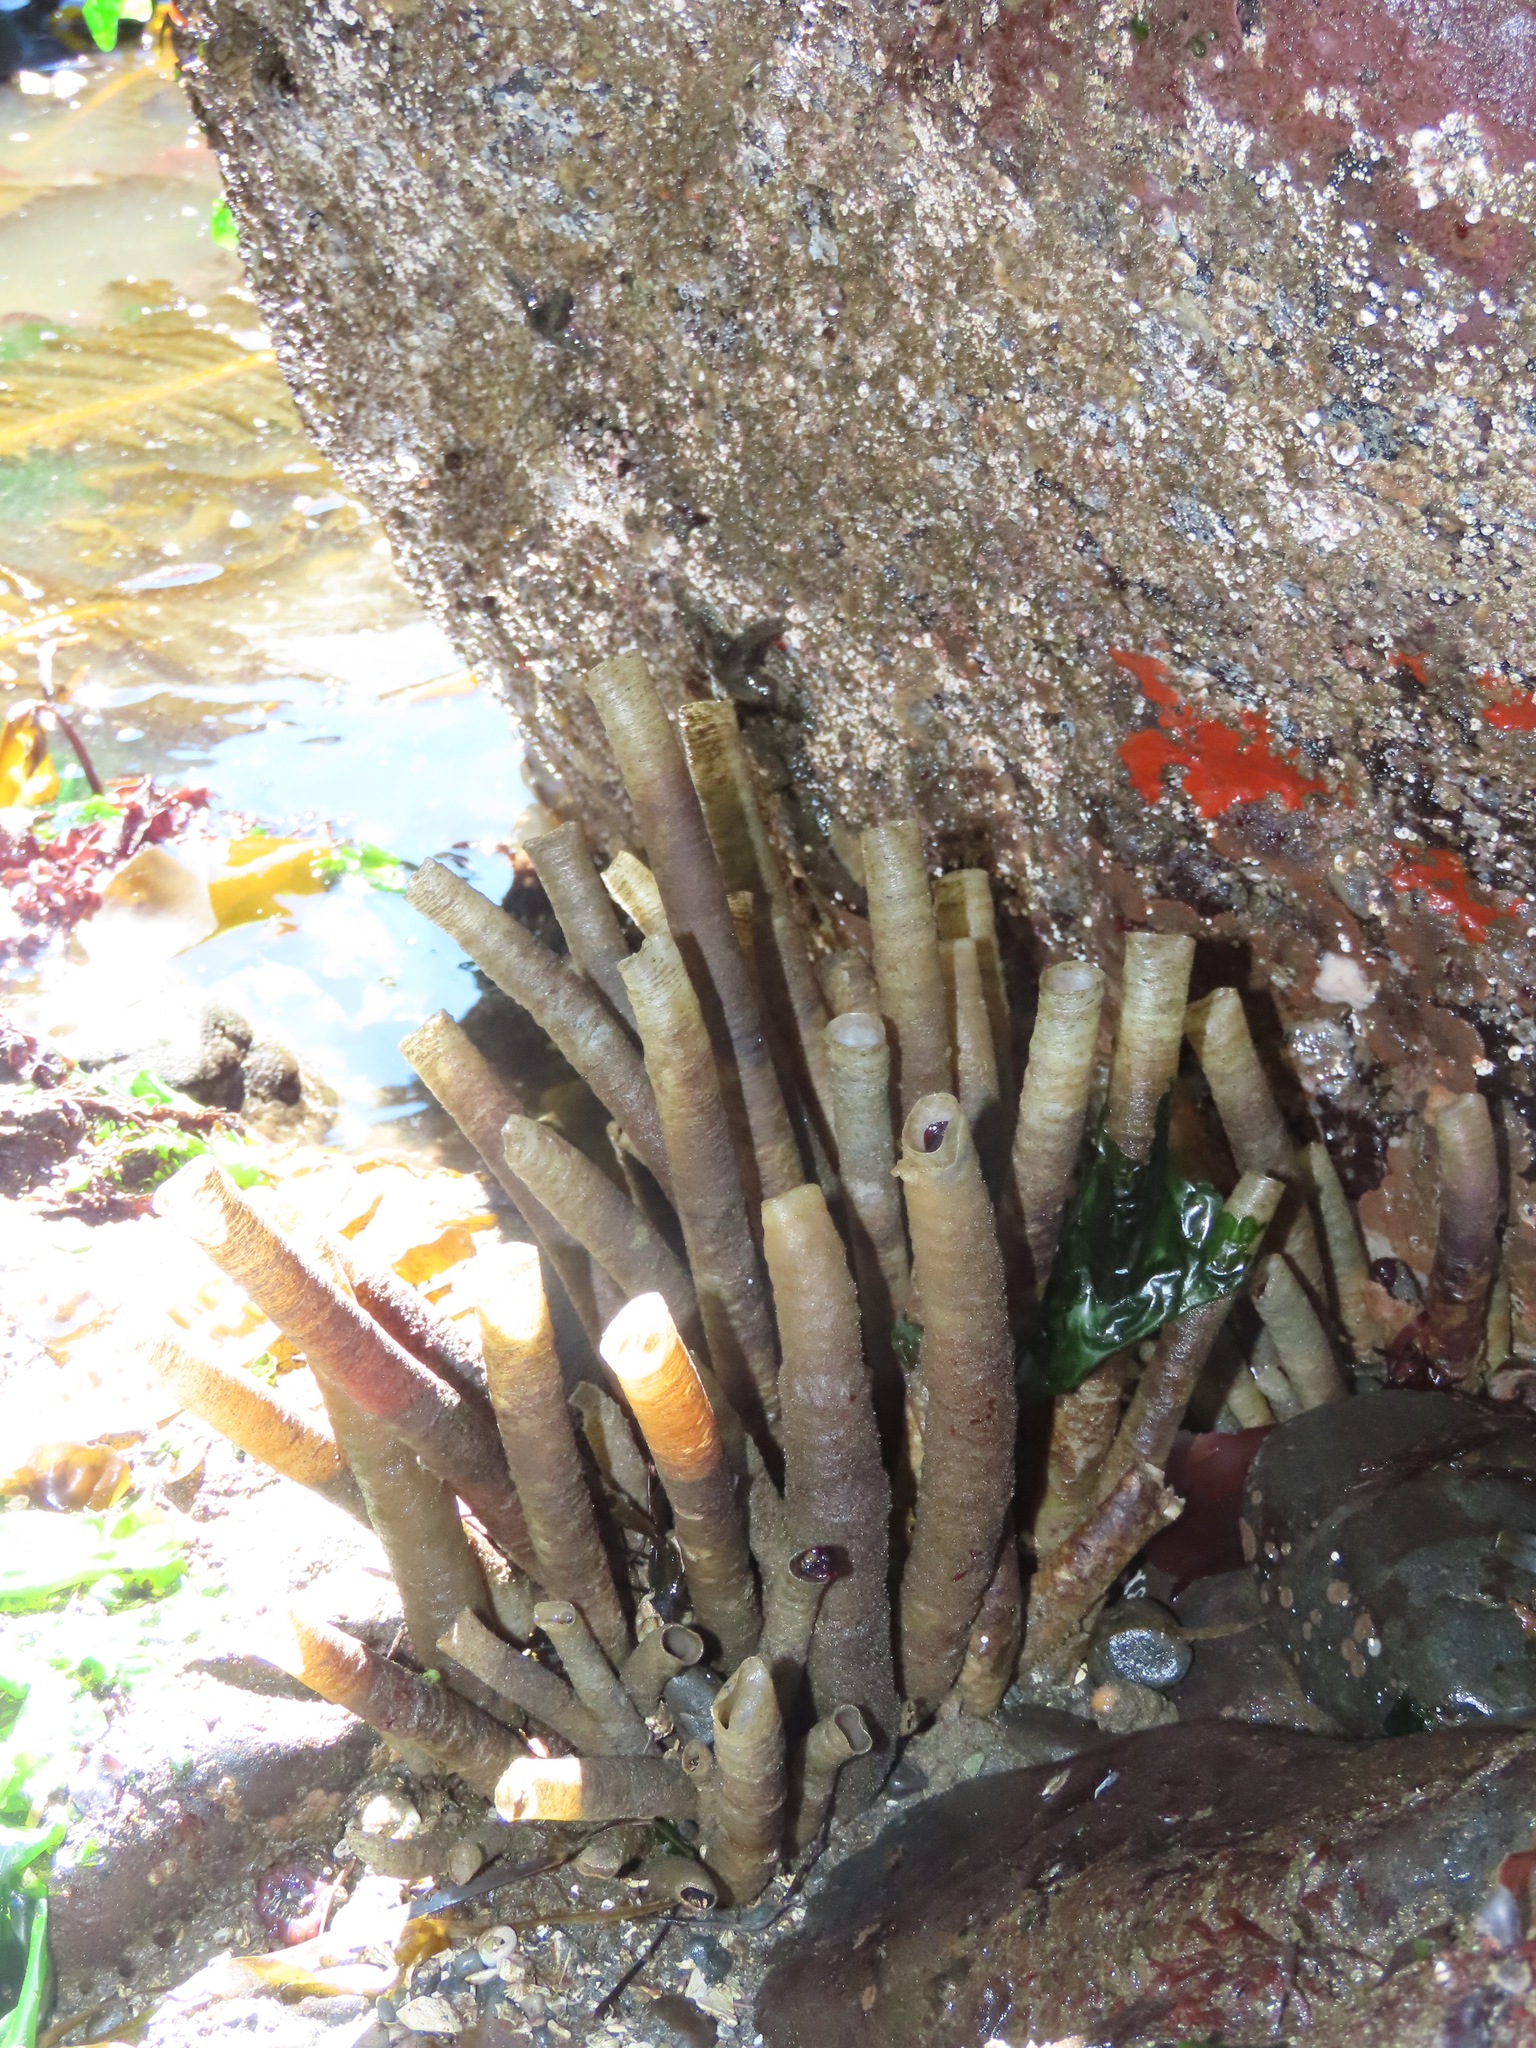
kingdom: Animalia
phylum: Annelida
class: Polychaeta
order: Sabellida
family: Sabellidae
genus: Eudistylia
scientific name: Eudistylia vancouveri
